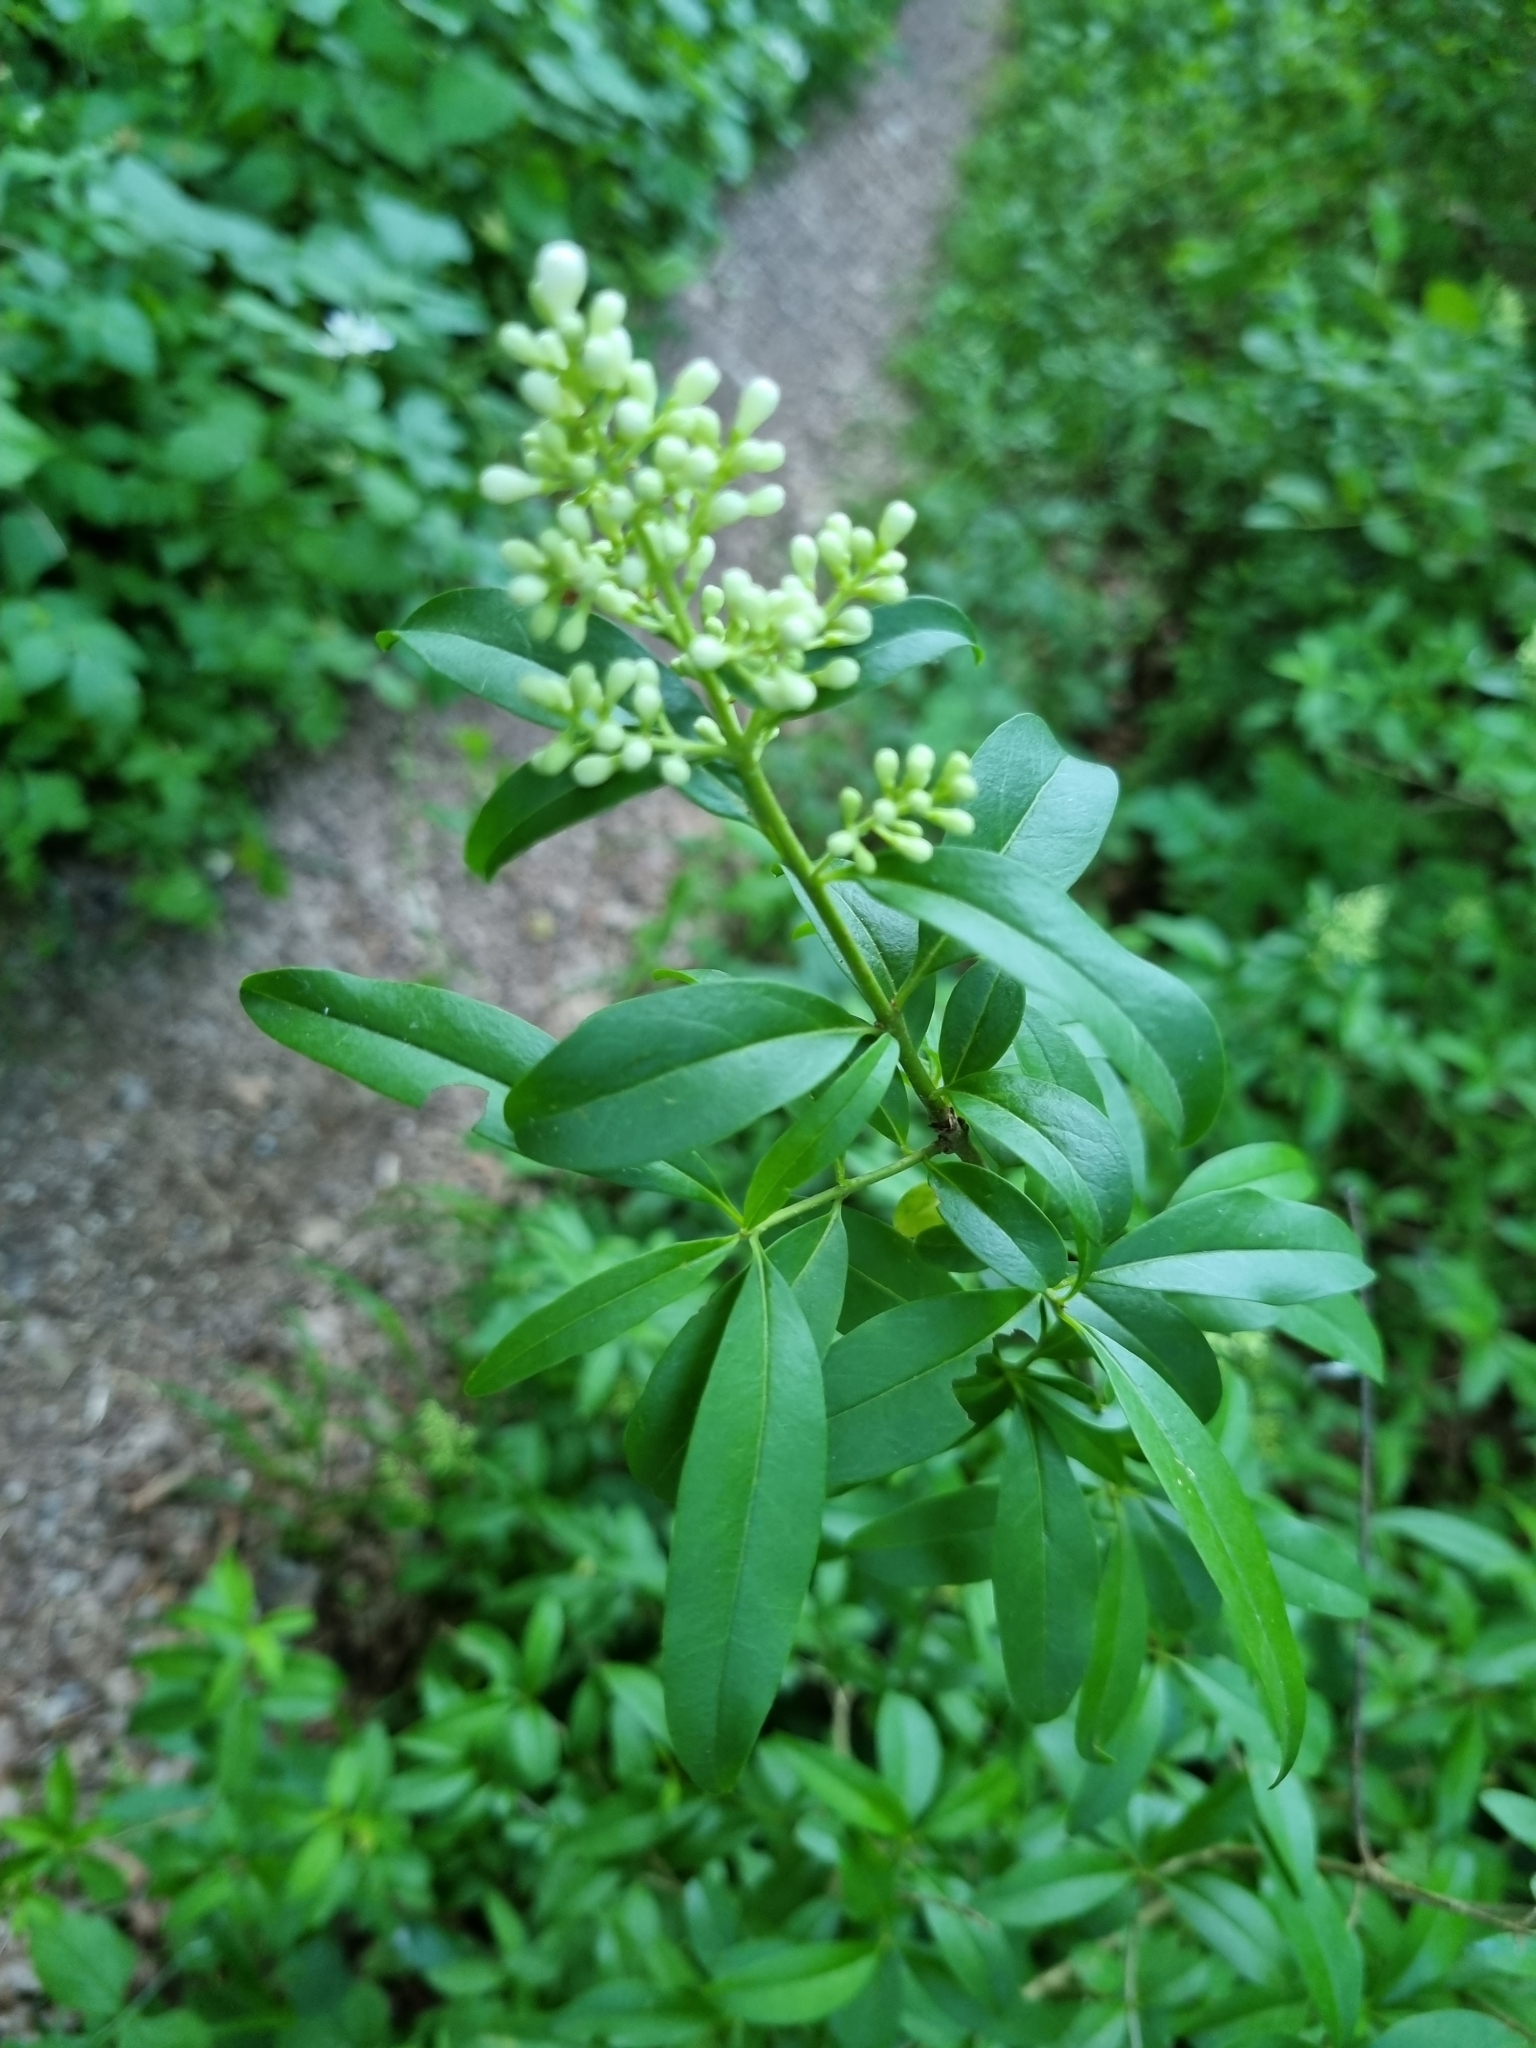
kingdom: Plantae
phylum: Tracheophyta
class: Magnoliopsida
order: Lamiales
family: Oleaceae
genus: Ligustrum
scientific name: Ligustrum vulgare
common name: Wild privet
